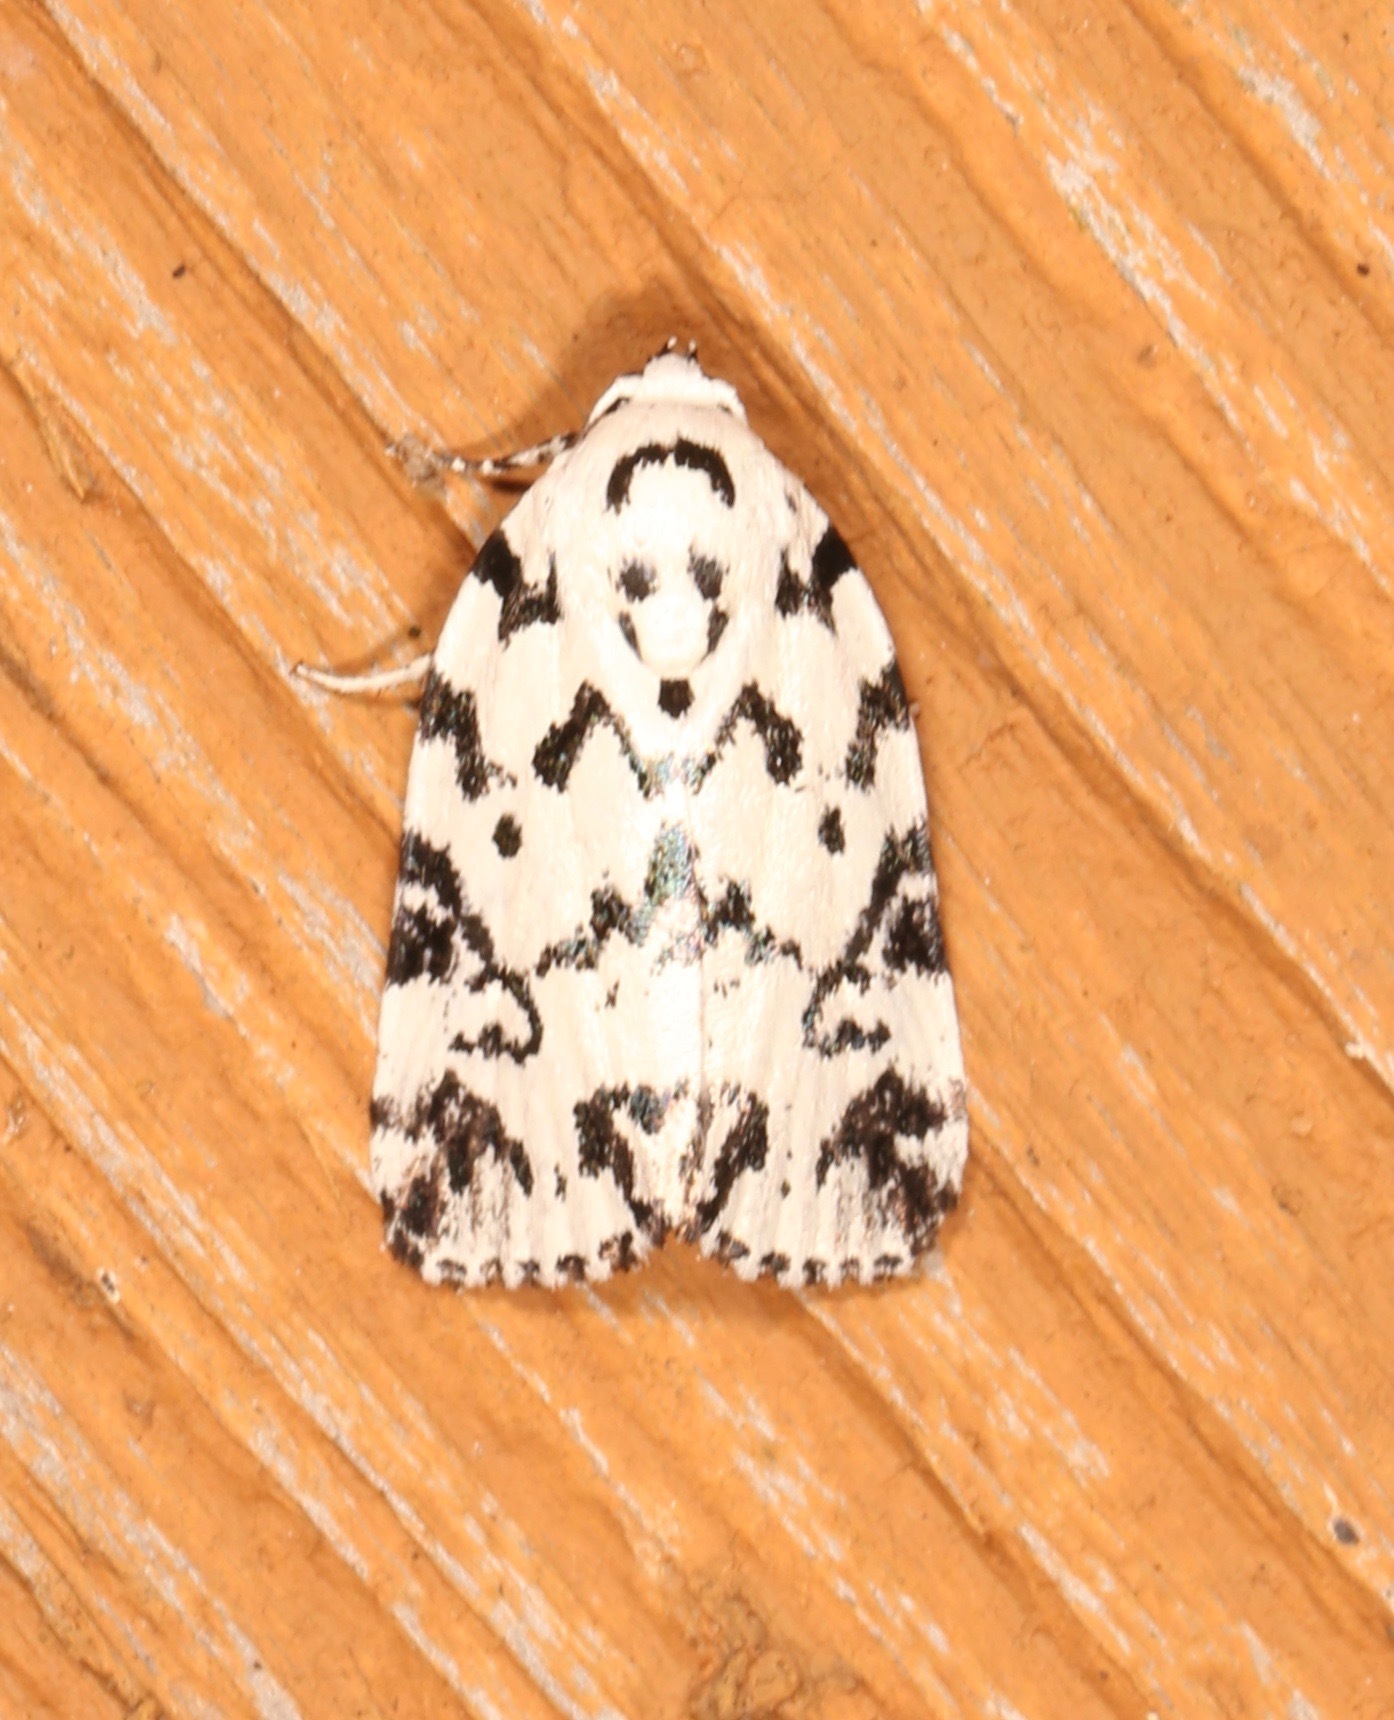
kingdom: Animalia
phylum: Arthropoda
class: Insecta
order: Lepidoptera
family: Noctuidae
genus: Polygrammate
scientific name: Polygrammate hebraeicum
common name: Hebrew moth
